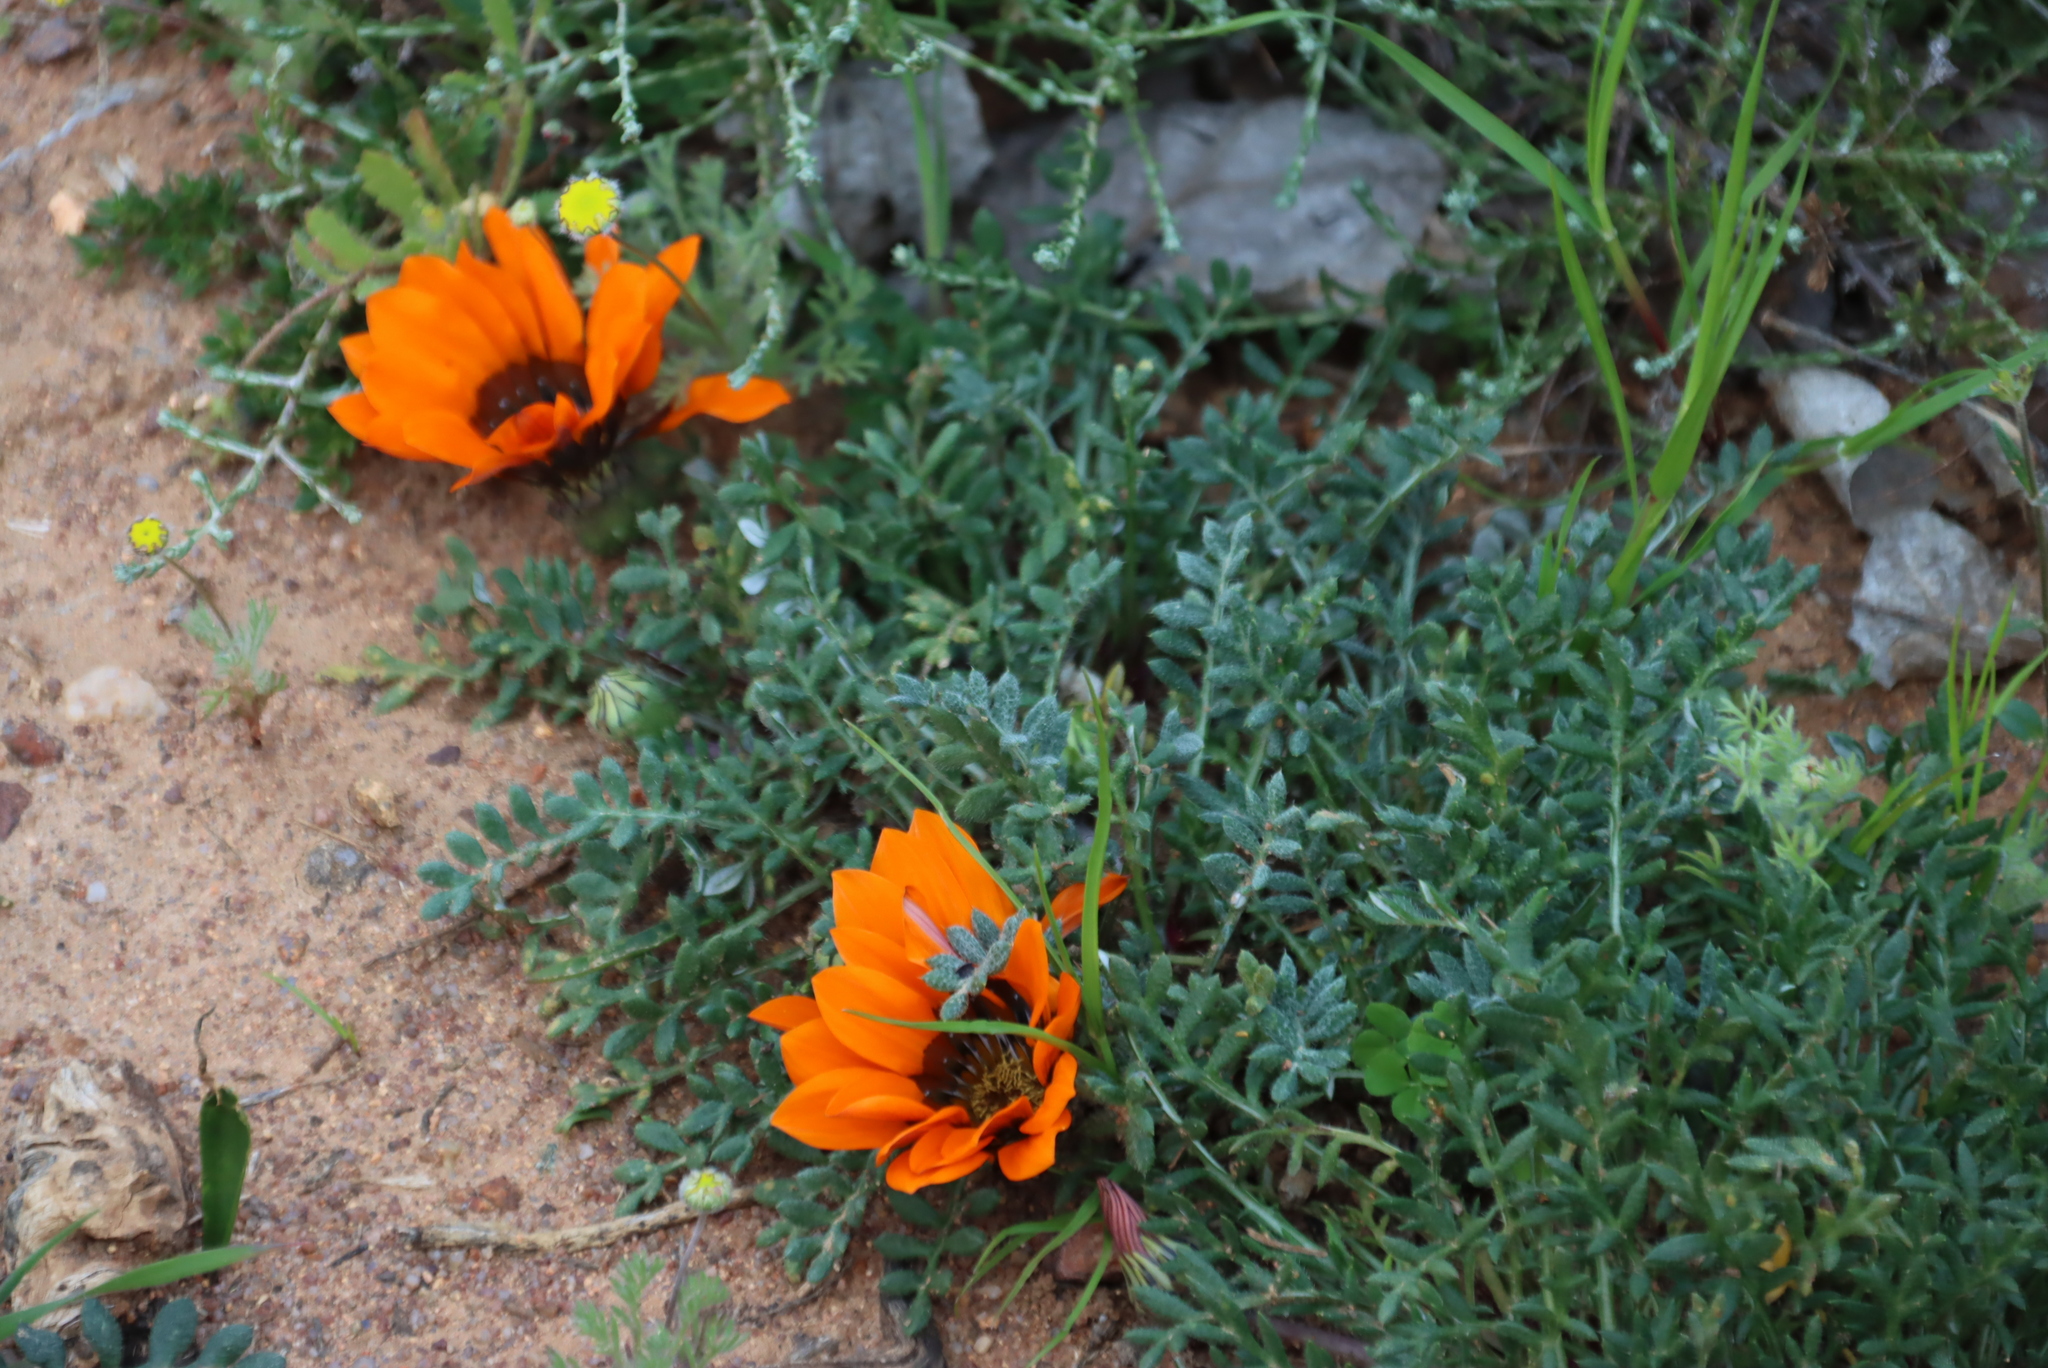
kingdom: Plantae
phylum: Tracheophyta
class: Magnoliopsida
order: Asterales
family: Asteraceae
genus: Gazania
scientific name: Gazania leiopoda
